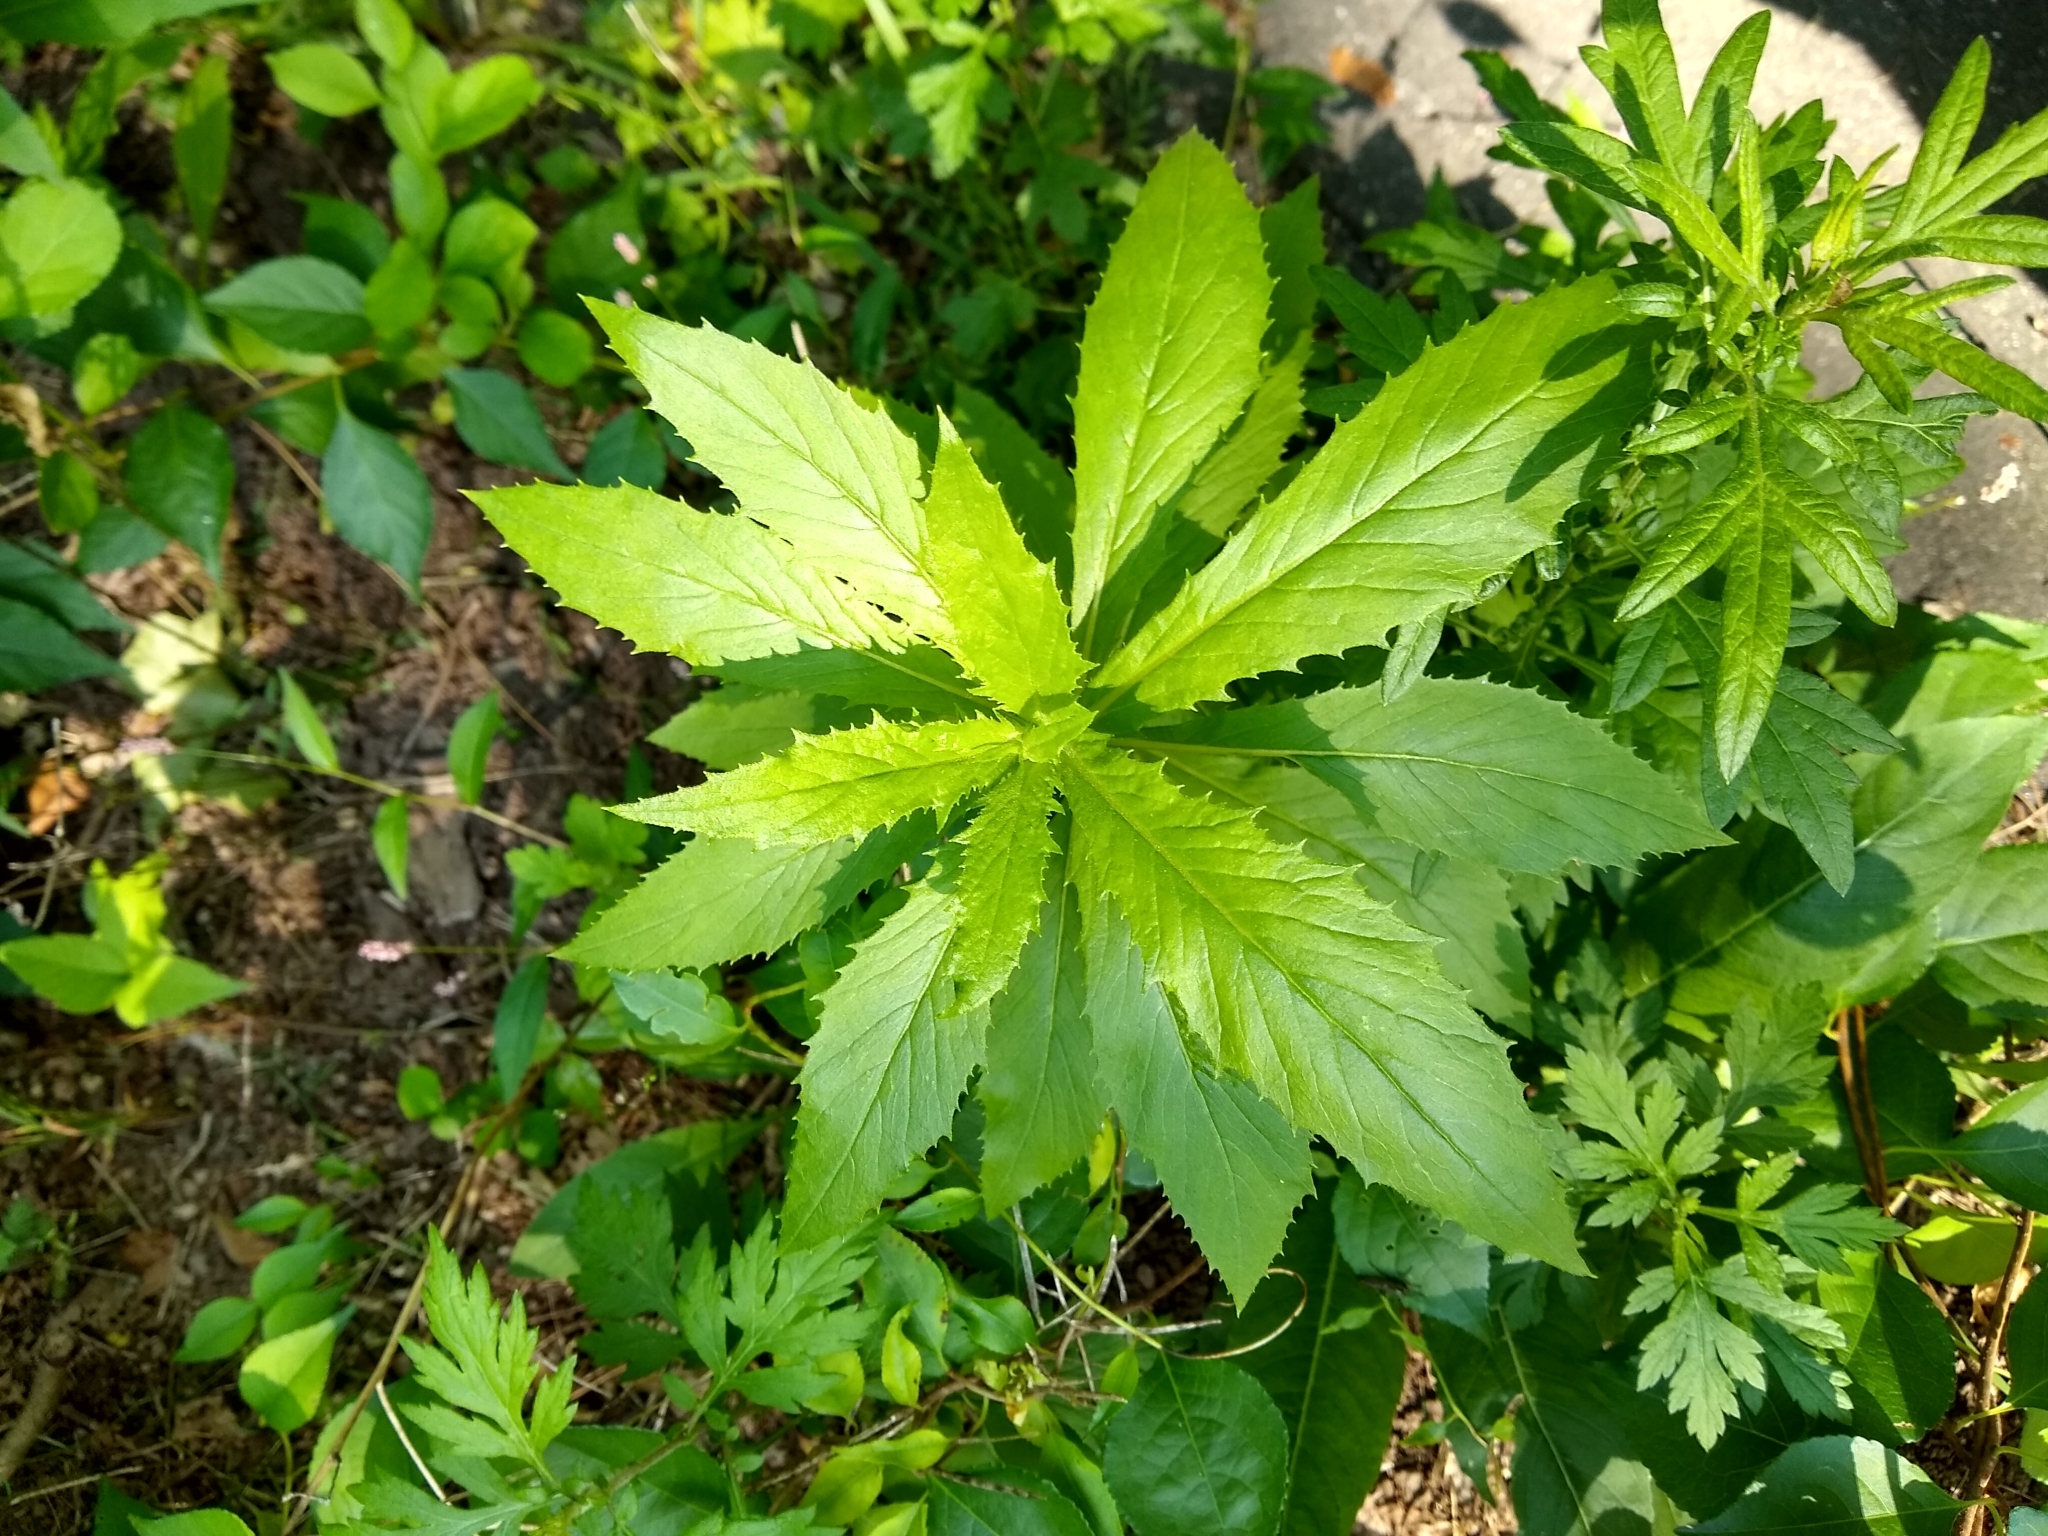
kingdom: Plantae
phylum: Tracheophyta
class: Magnoliopsida
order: Asterales
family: Asteraceae
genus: Erechtites
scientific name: Erechtites hieraciifolius
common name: American burnweed
